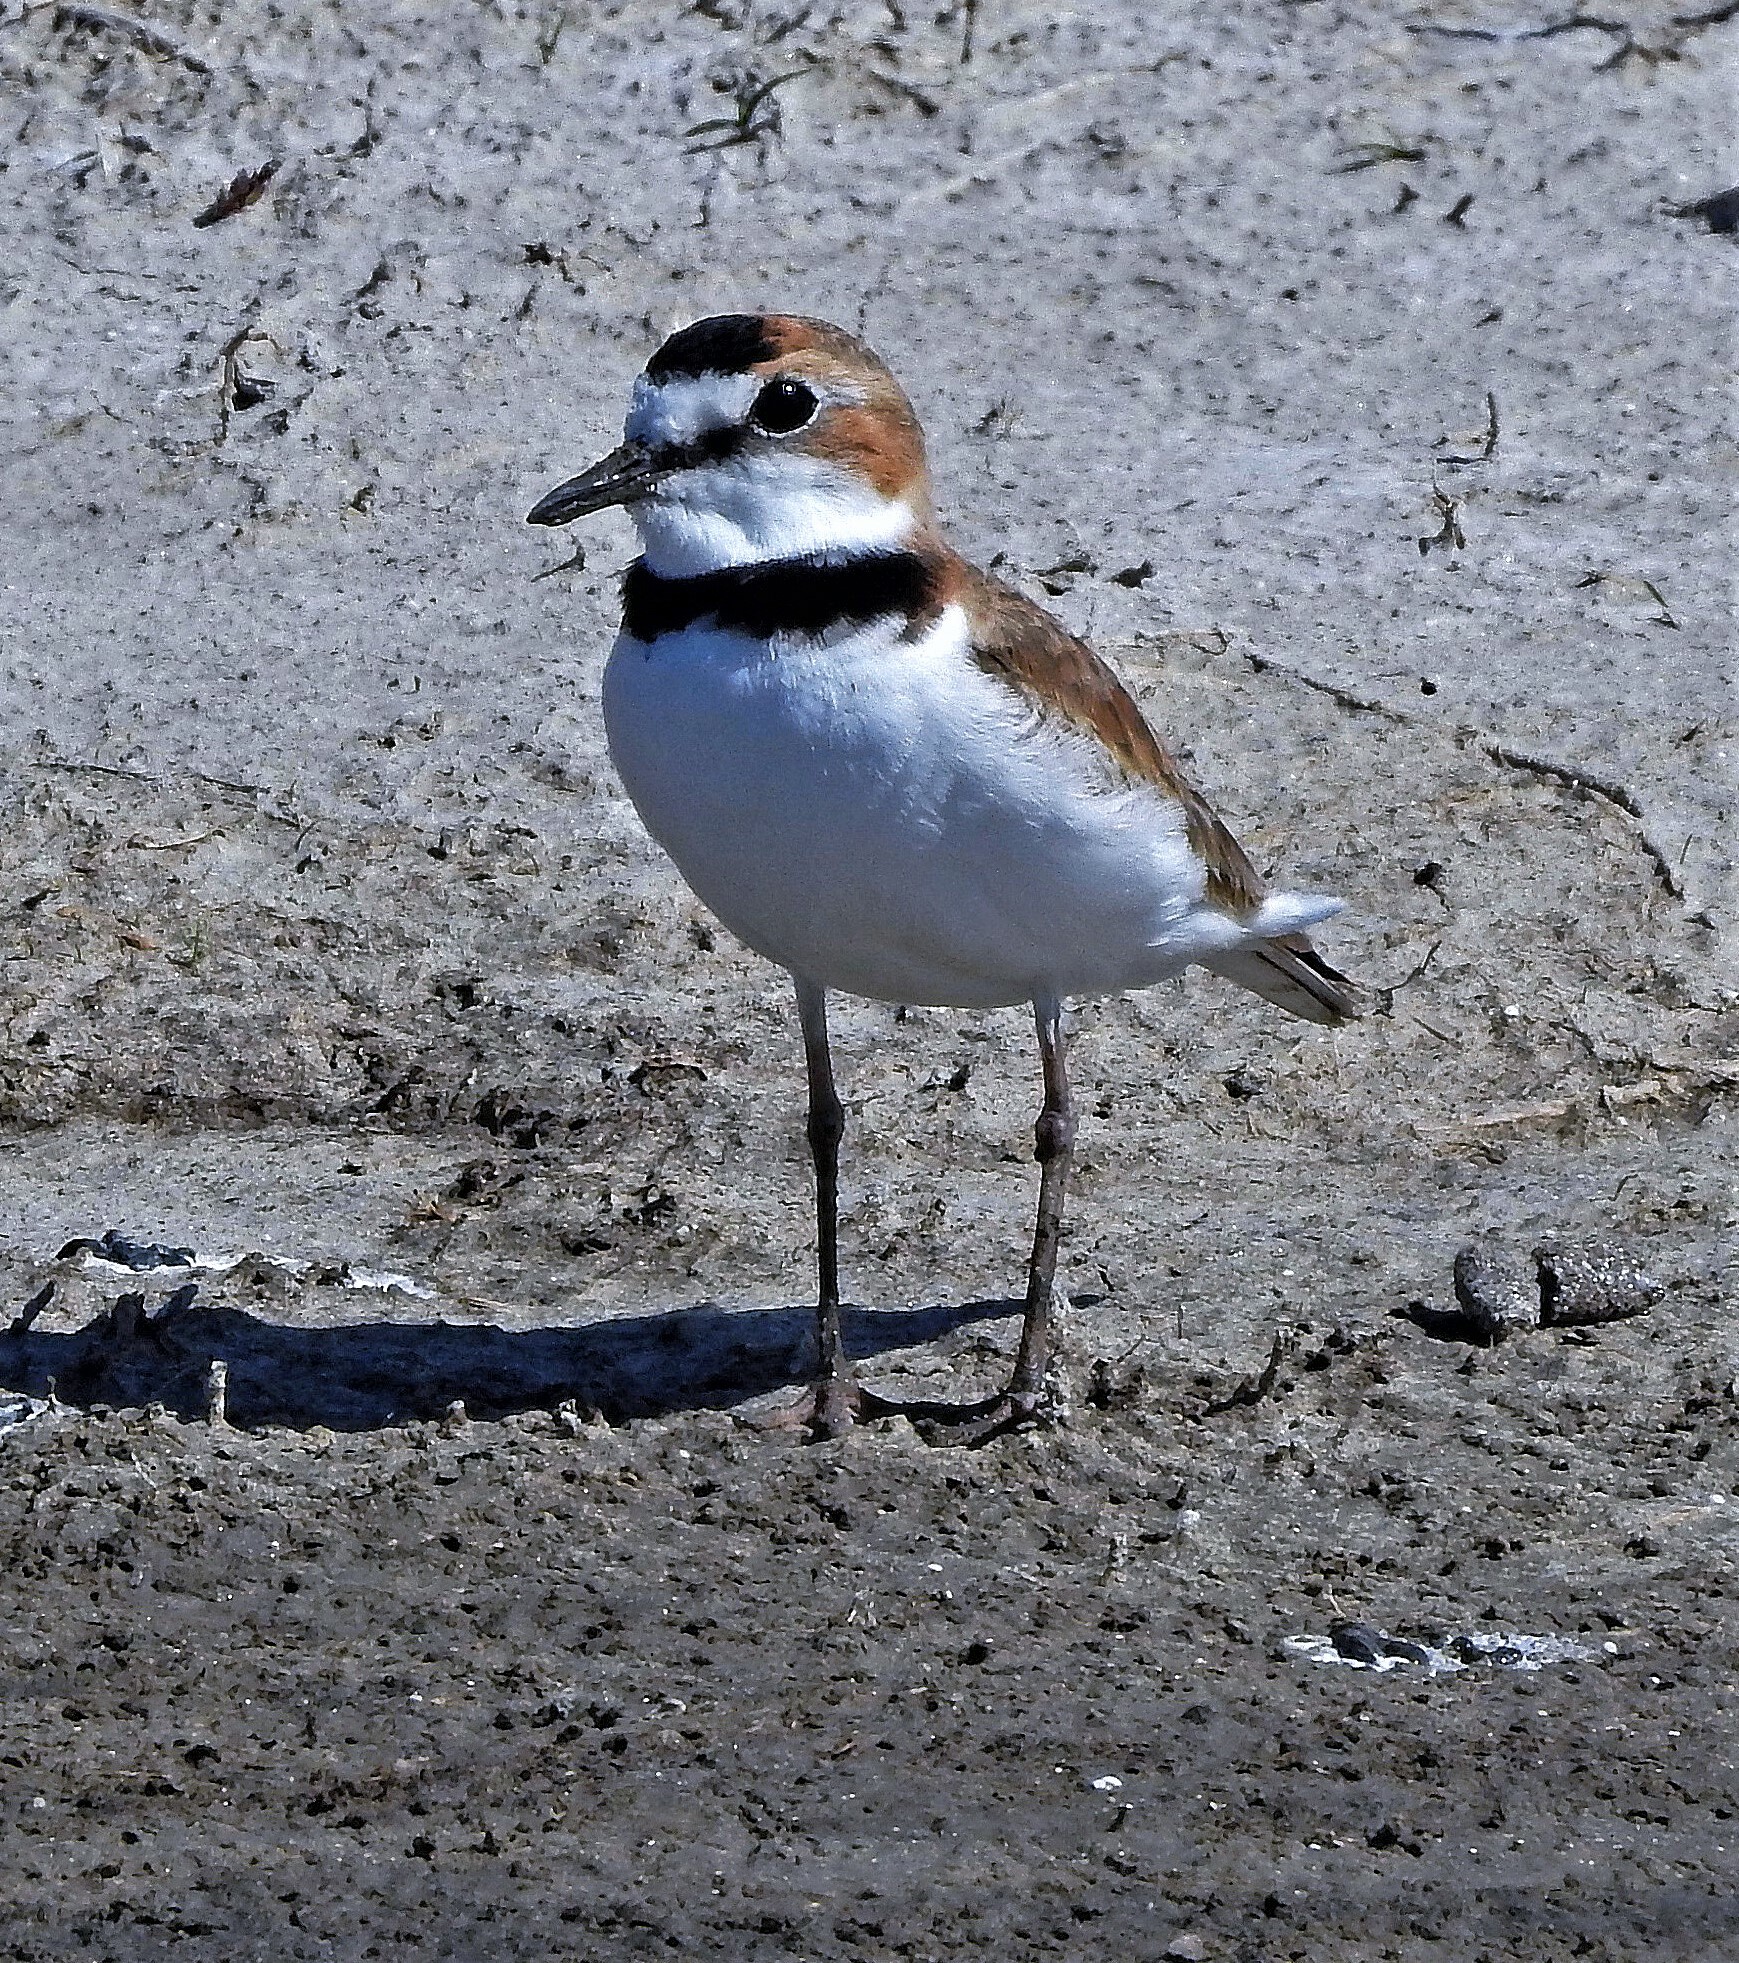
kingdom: Animalia
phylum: Chordata
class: Aves
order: Charadriiformes
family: Charadriidae
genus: Anarhynchus
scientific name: Anarhynchus
